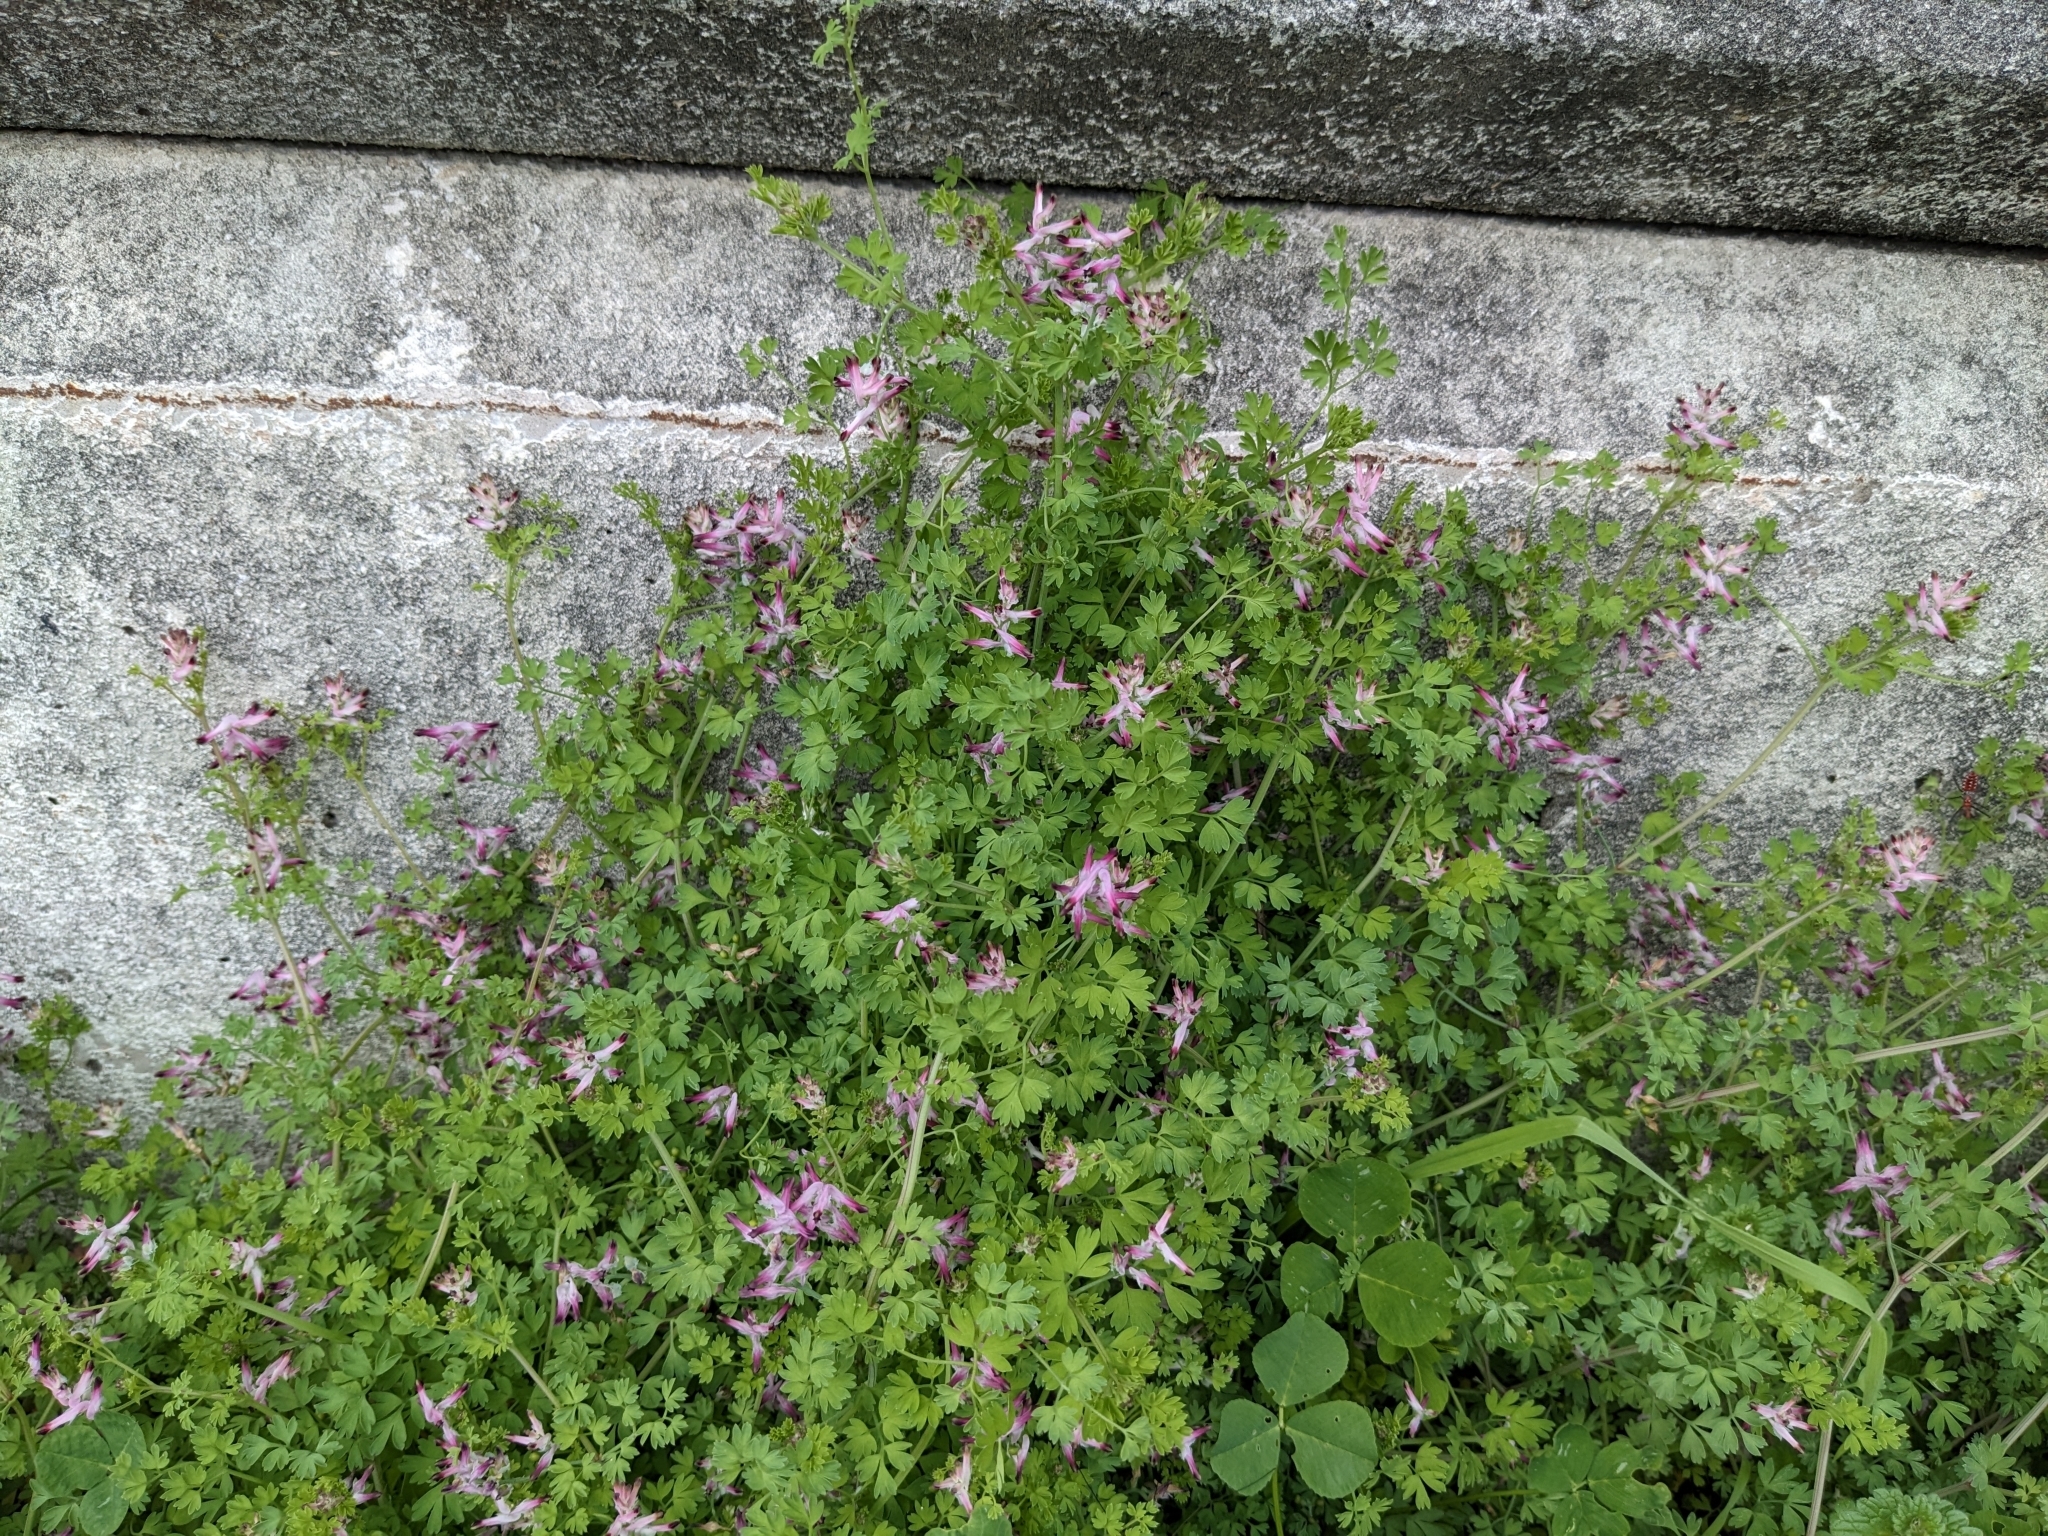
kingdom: Plantae
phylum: Tracheophyta
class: Magnoliopsida
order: Ranunculales
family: Papaveraceae
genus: Fumaria
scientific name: Fumaria muralis
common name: Common ramping-fumitory
